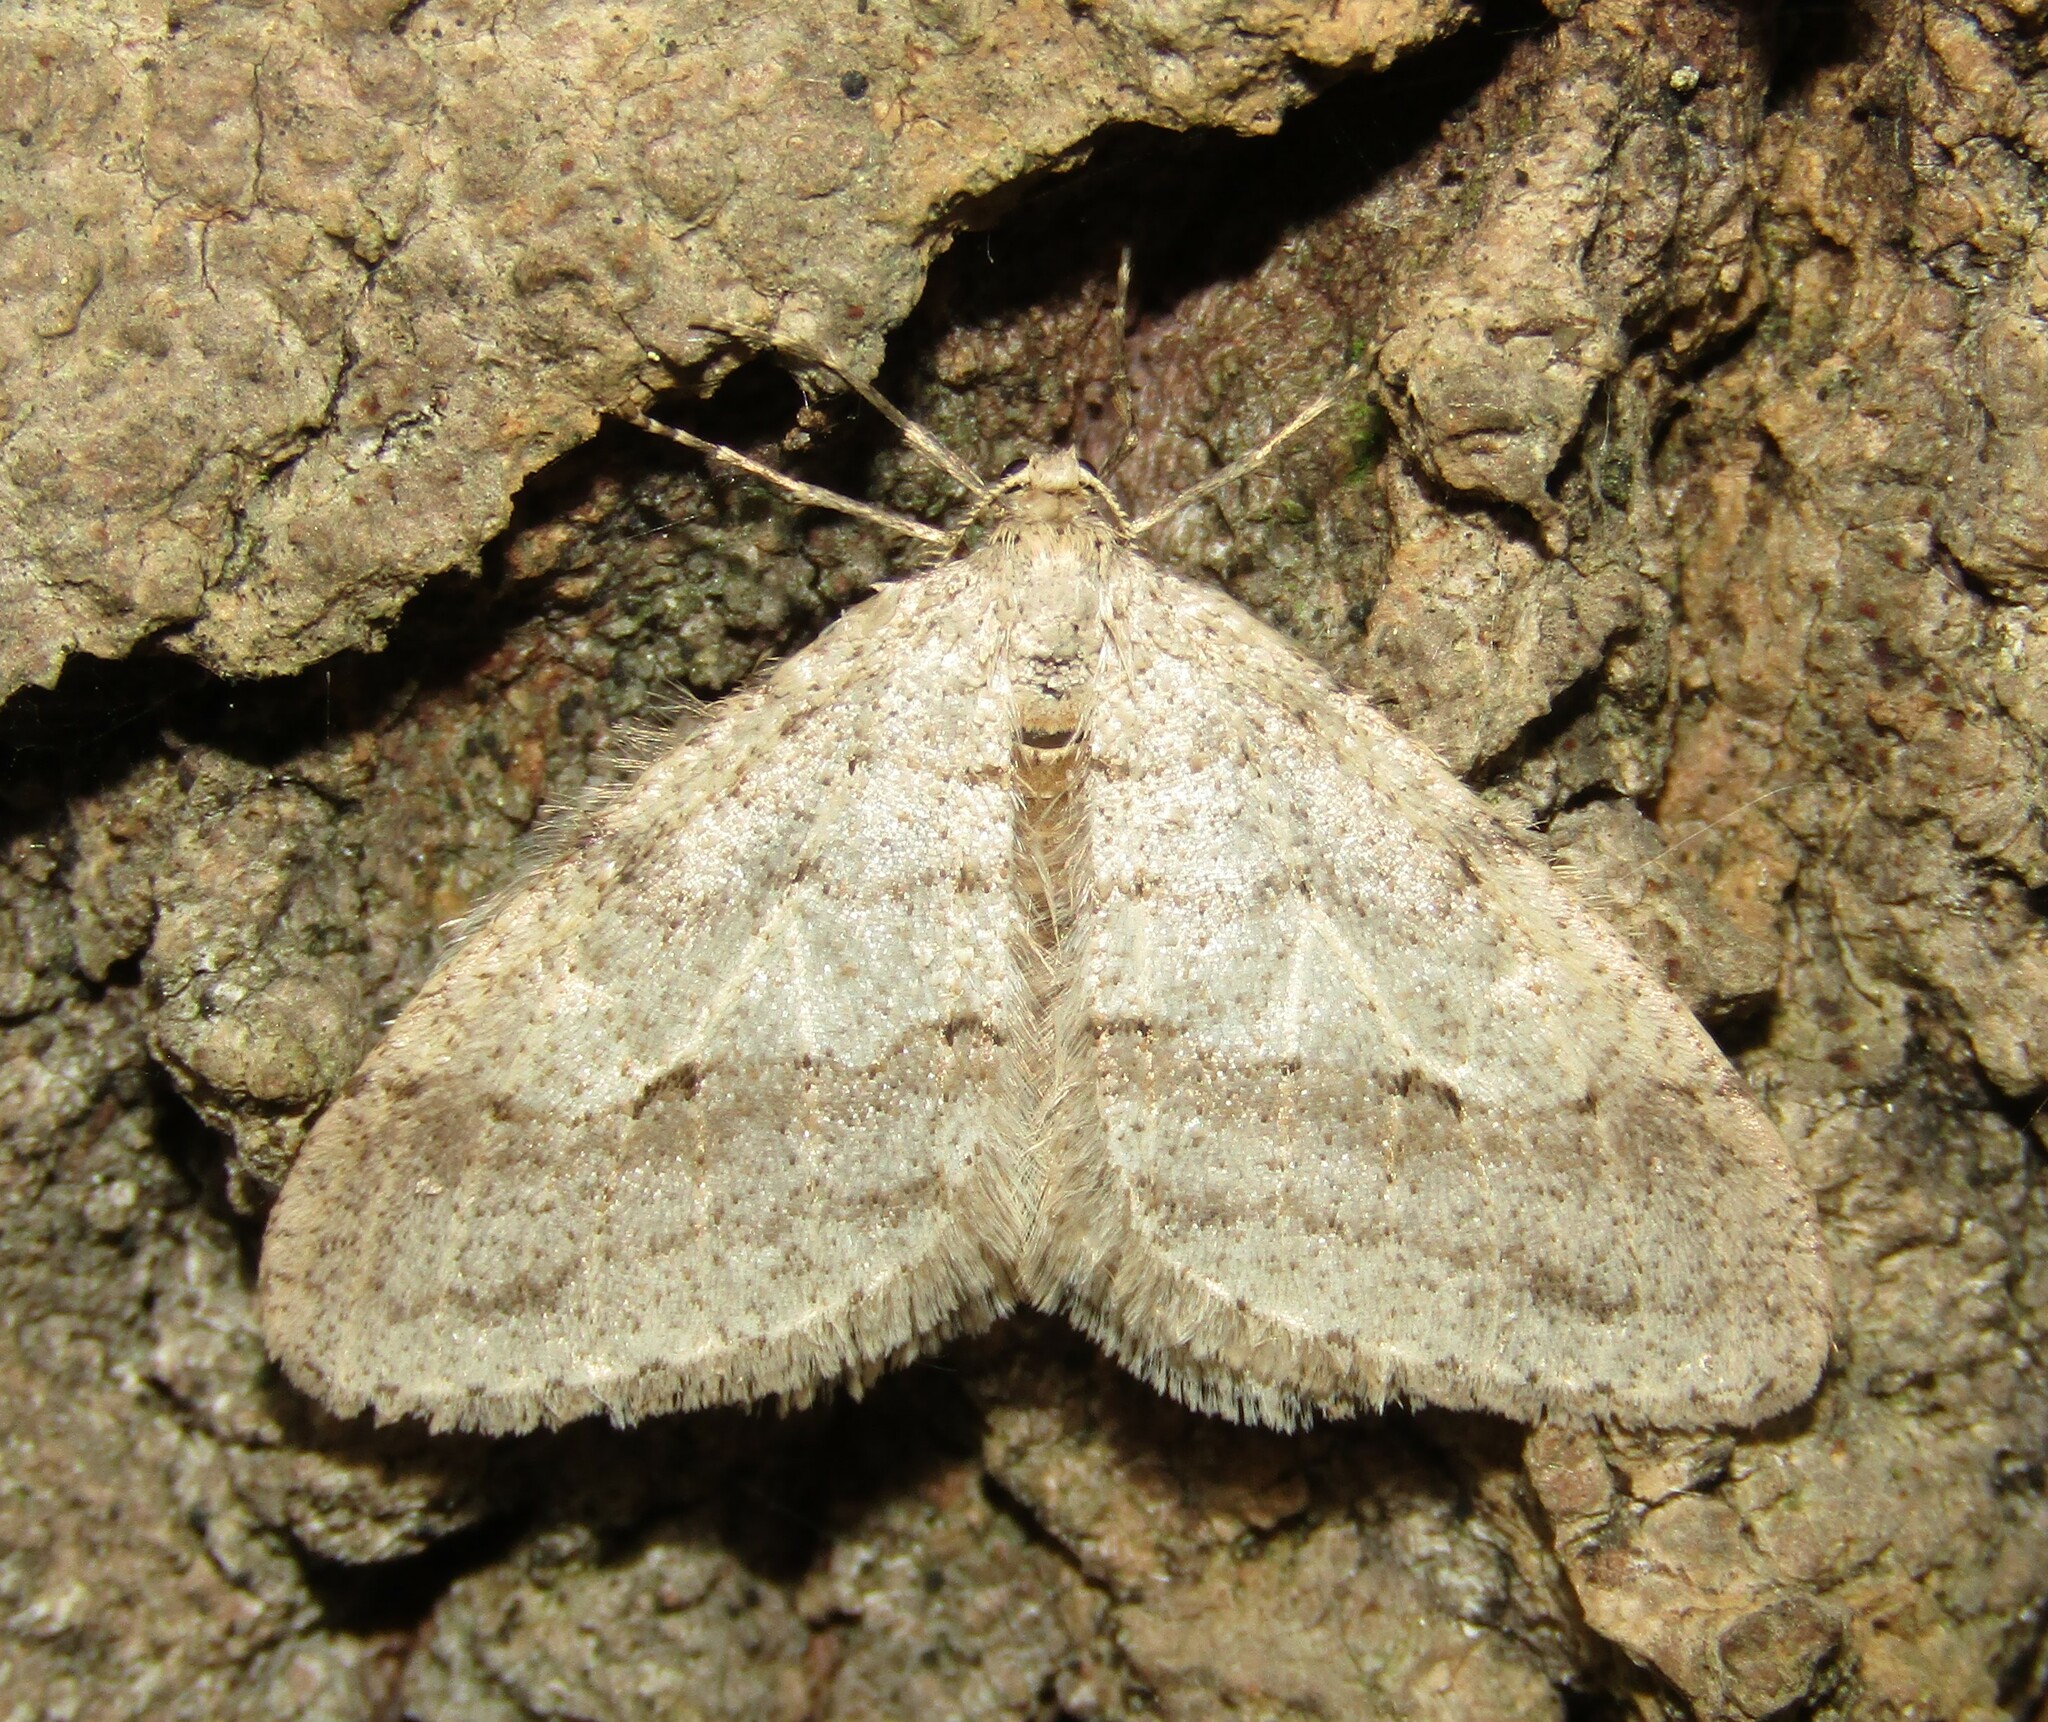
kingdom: Animalia
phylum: Arthropoda
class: Insecta
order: Lepidoptera
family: Geometridae
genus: Larerannis
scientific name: Larerannis orthogrammaria
